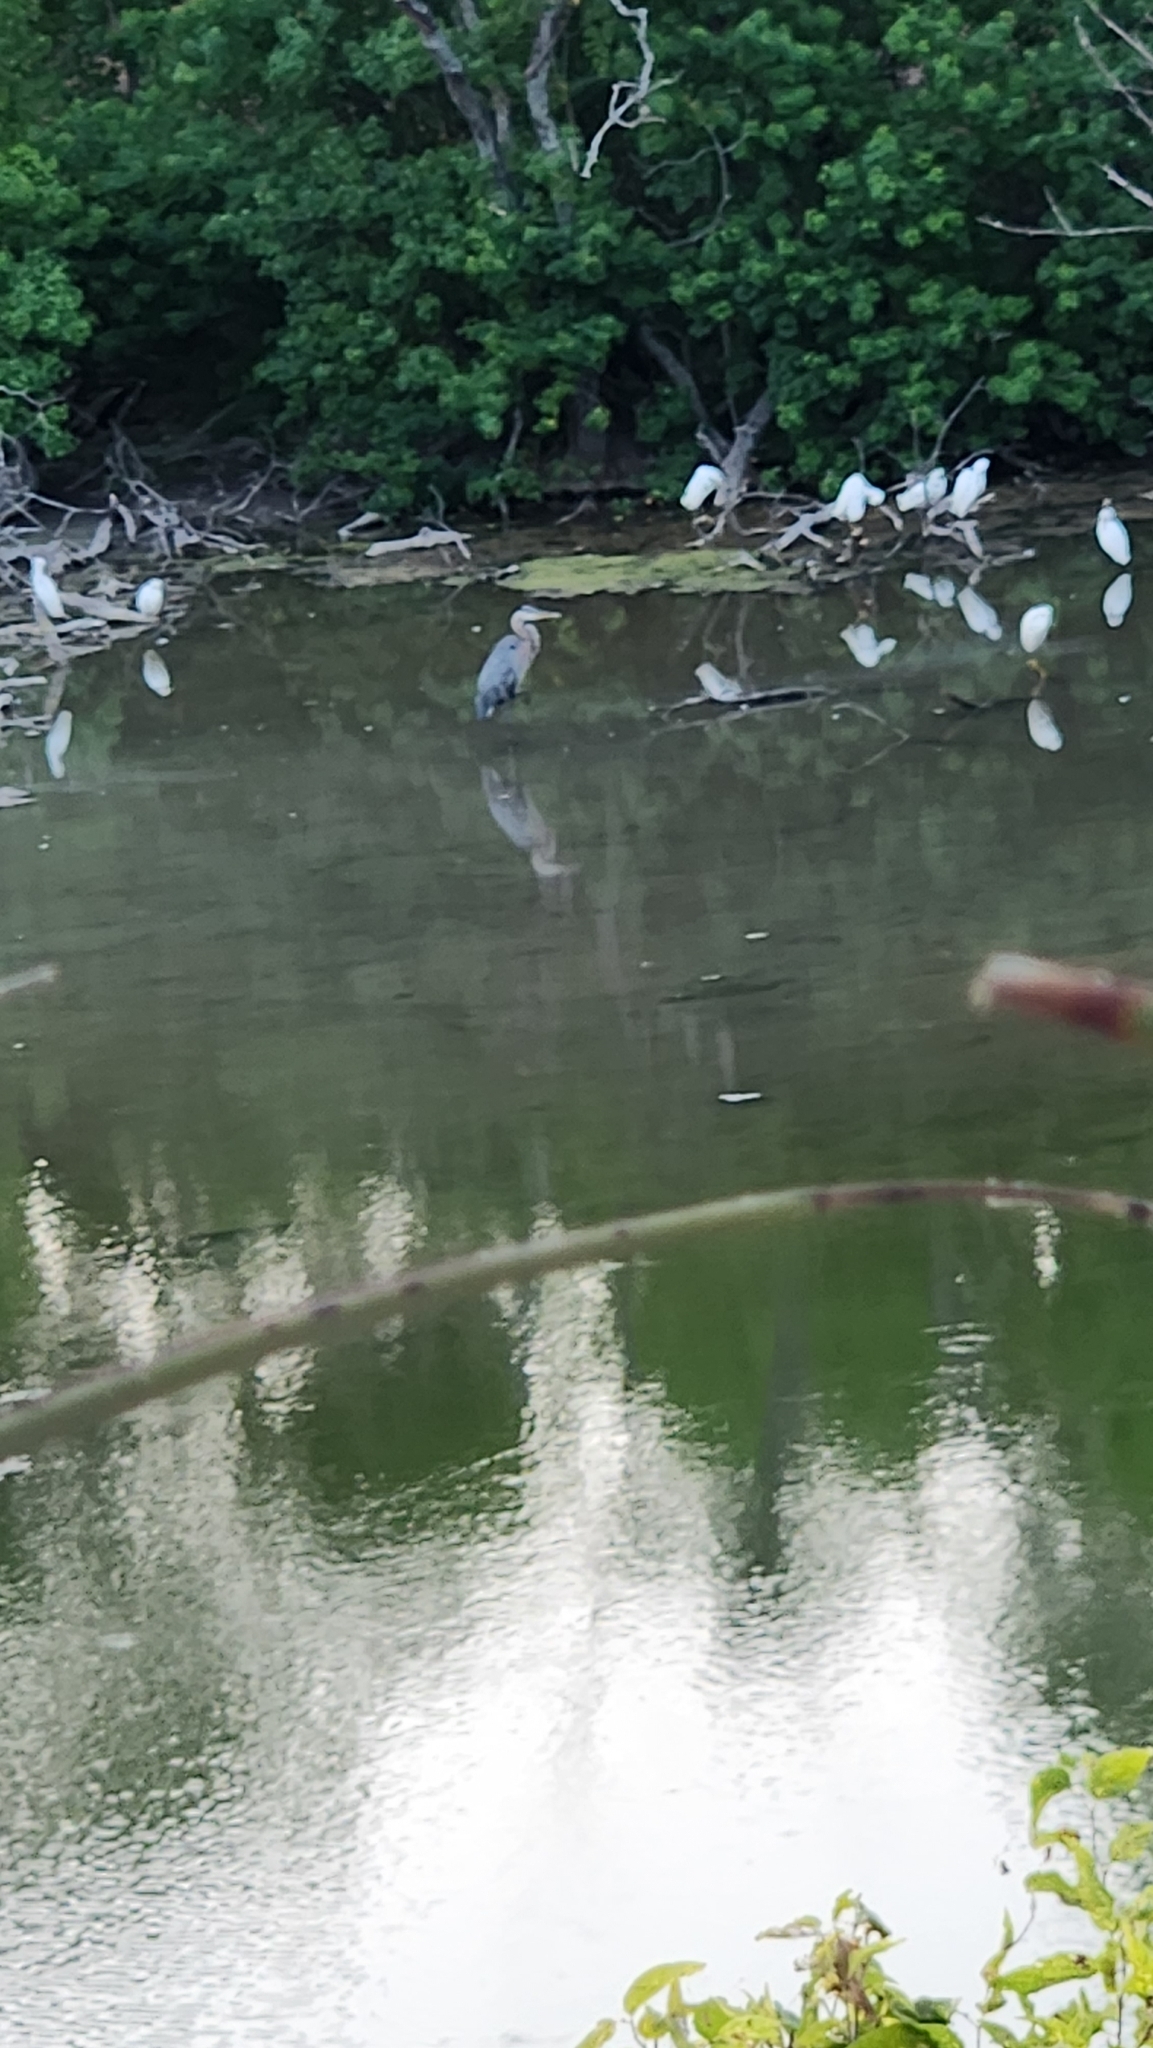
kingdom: Animalia
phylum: Chordata
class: Aves
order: Pelecaniformes
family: Ardeidae
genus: Ardea
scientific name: Ardea herodias
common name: Great blue heron
